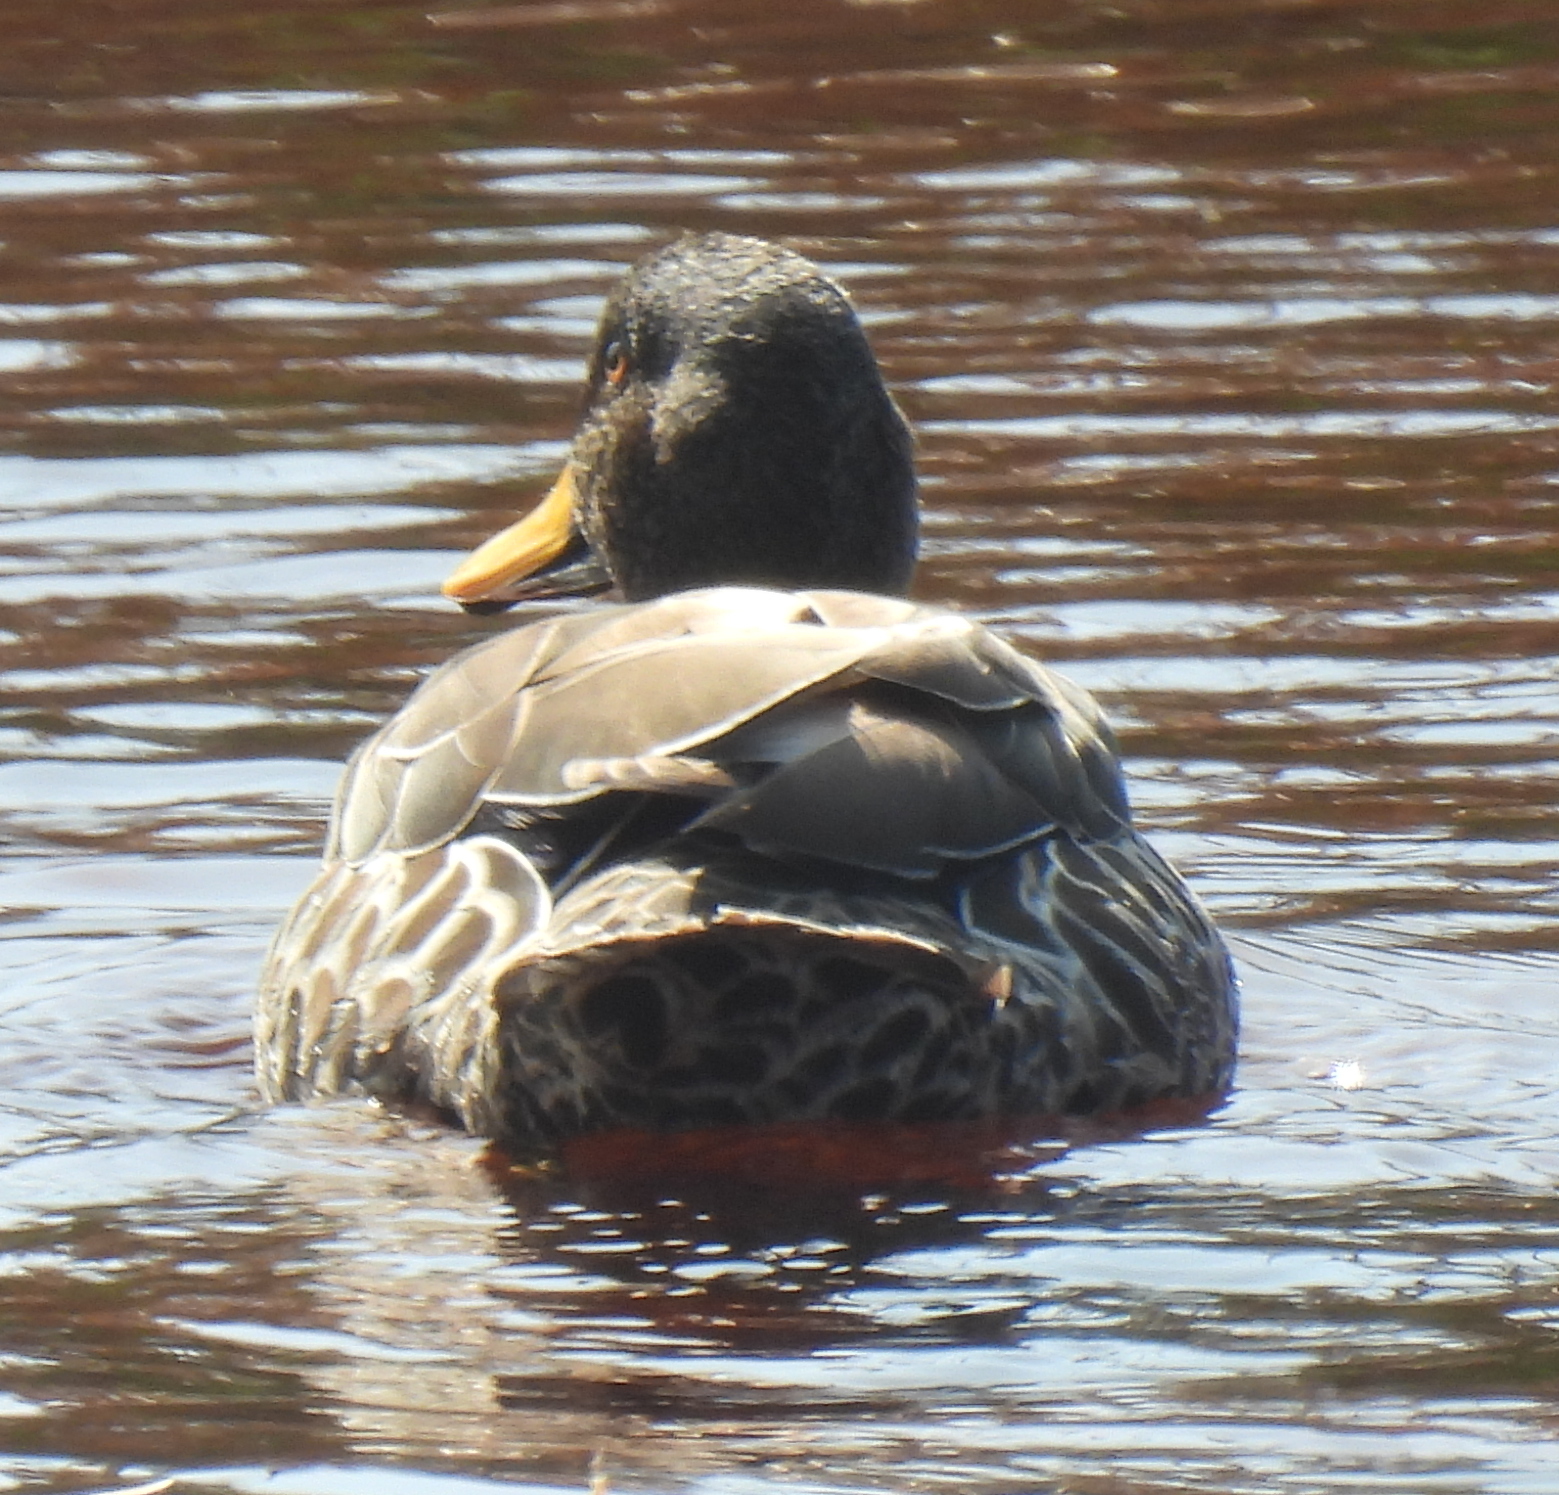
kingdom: Animalia
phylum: Chordata
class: Aves
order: Anseriformes
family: Anatidae
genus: Anas
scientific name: Anas undulata
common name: Yellow-billed duck
